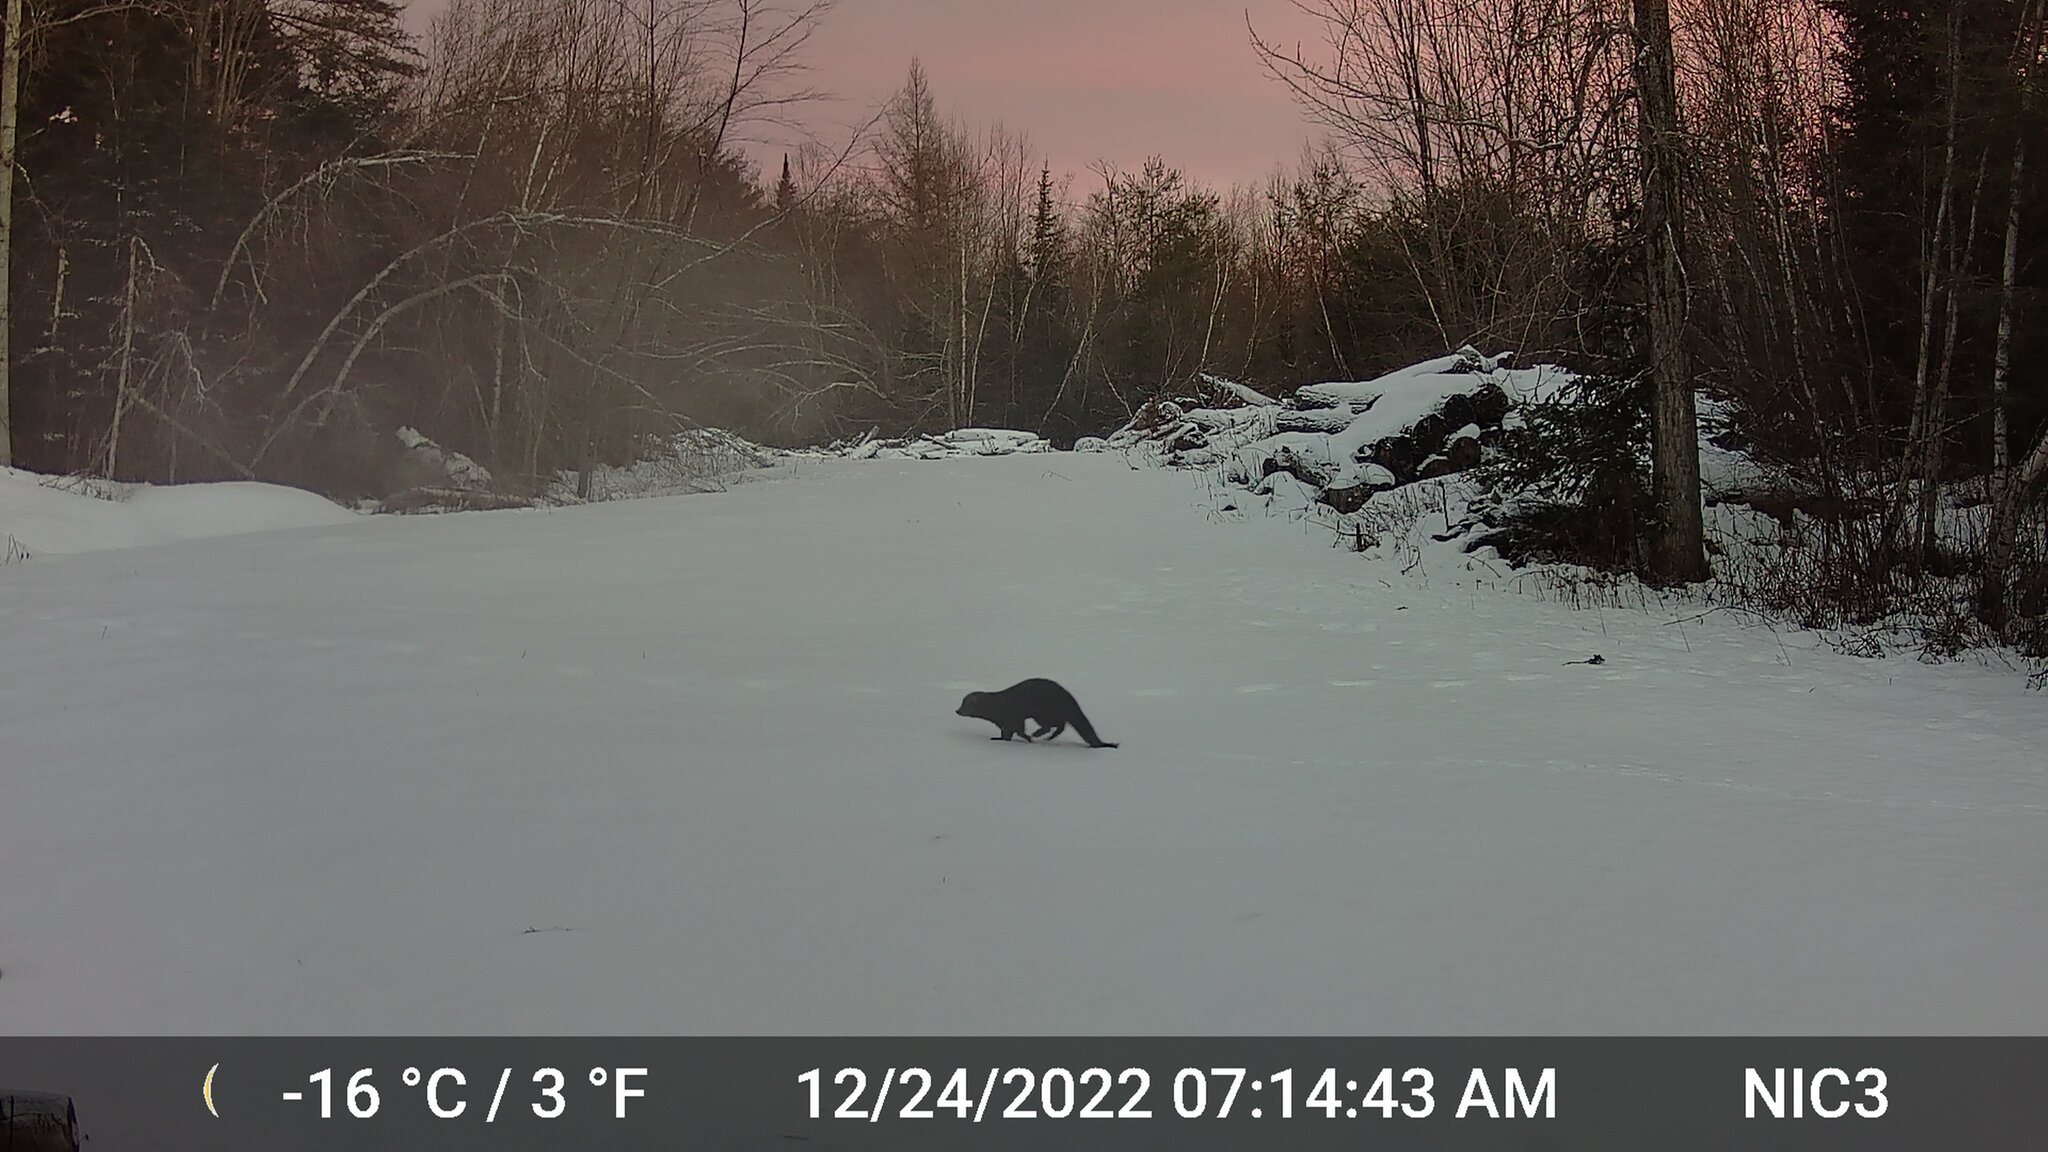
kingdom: Animalia
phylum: Chordata
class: Mammalia
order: Carnivora
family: Mustelidae
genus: Pekania
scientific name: Pekania pennanti
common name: Fisher
